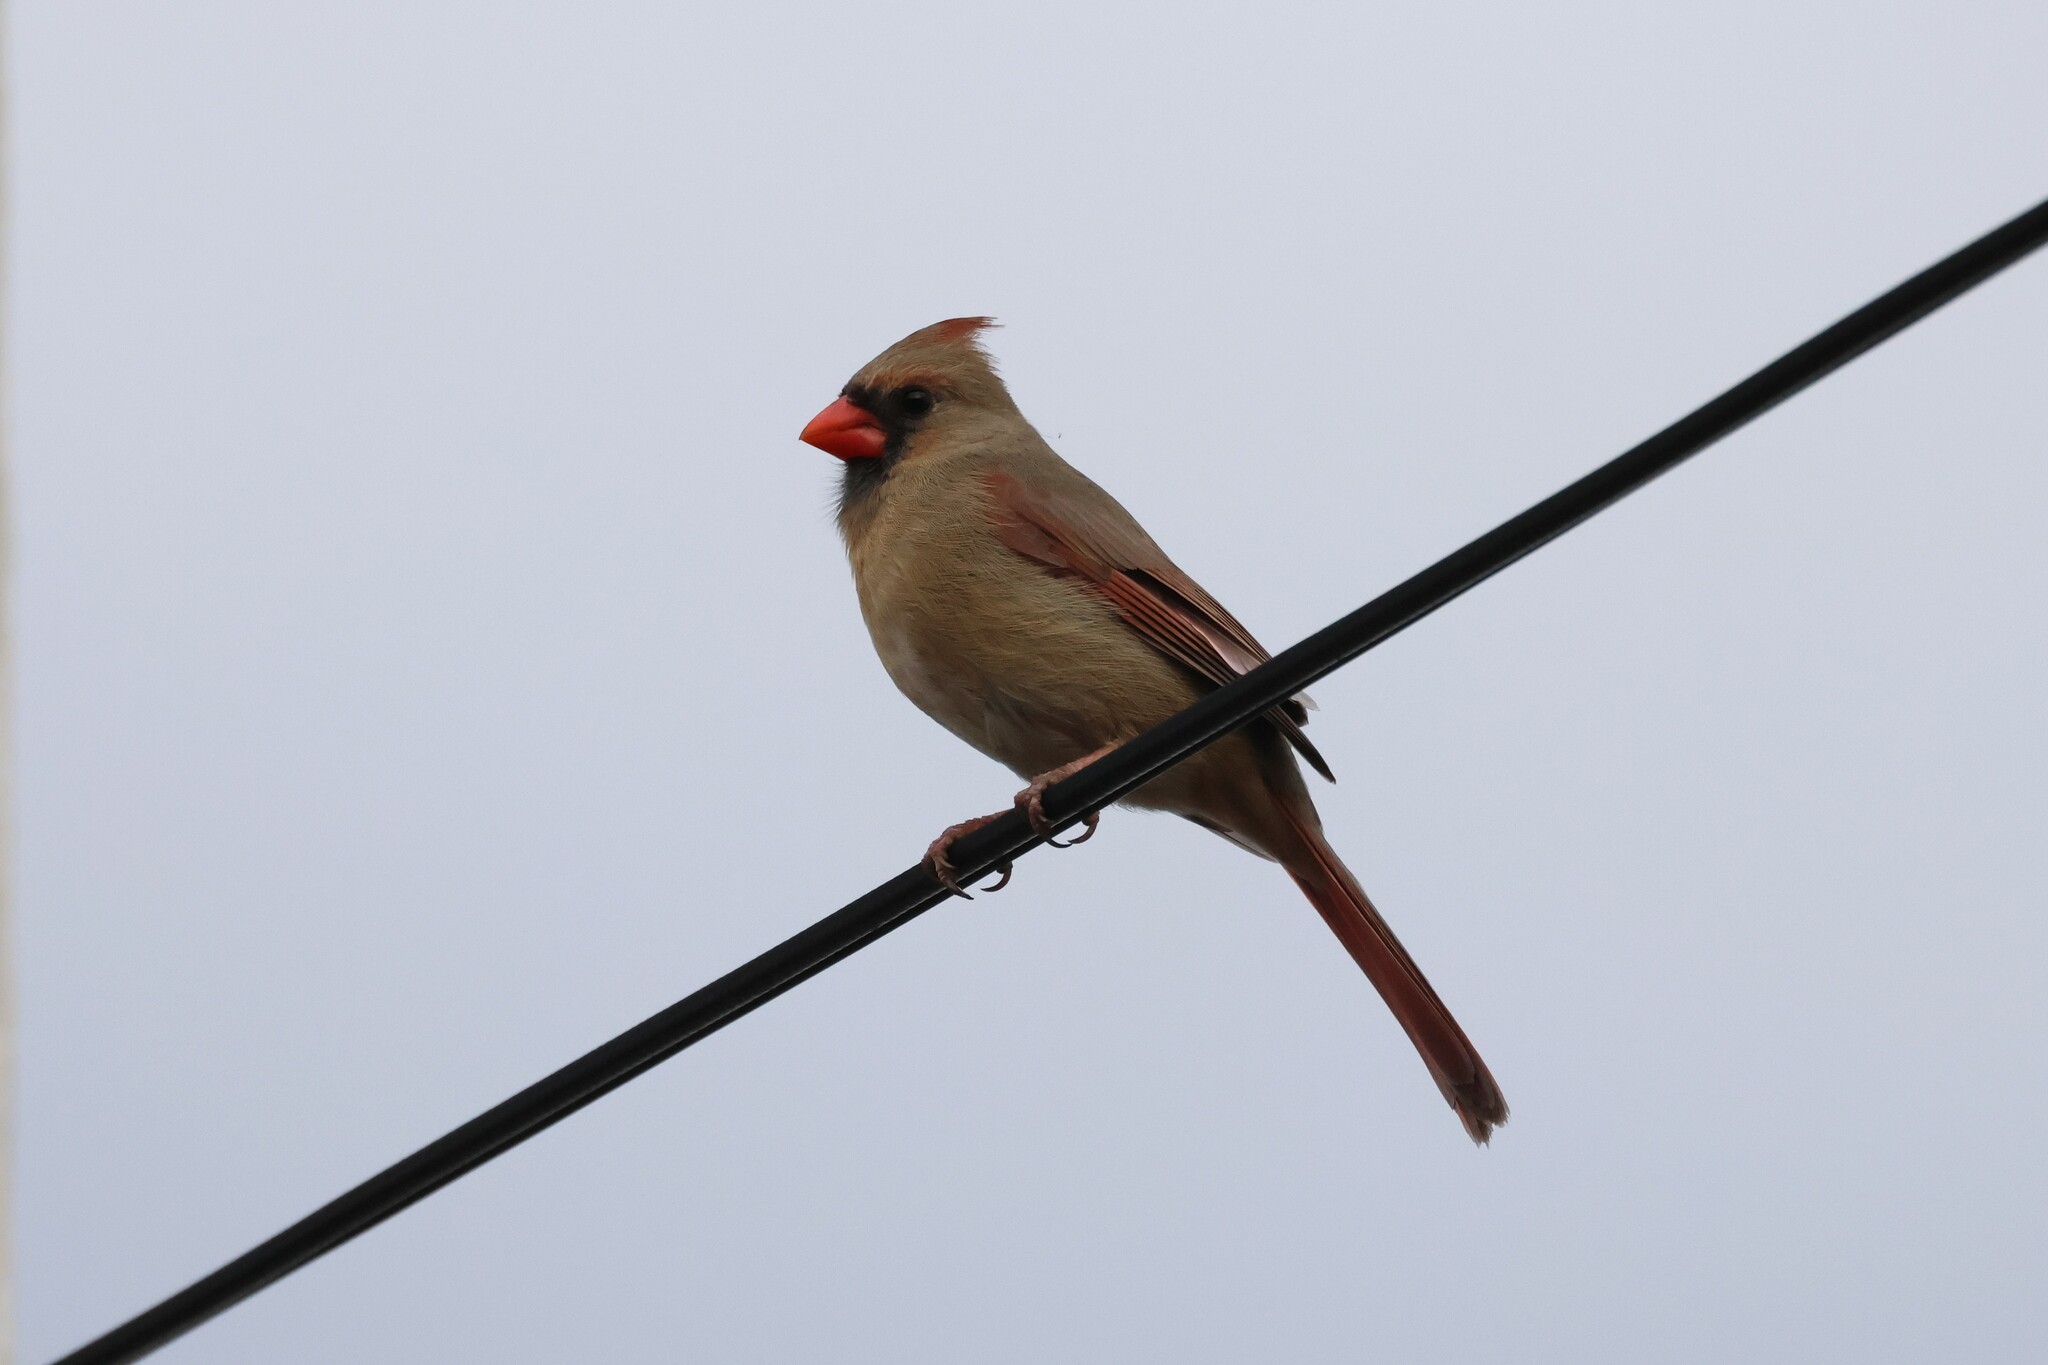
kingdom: Animalia
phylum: Chordata
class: Aves
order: Passeriformes
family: Cardinalidae
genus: Cardinalis
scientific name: Cardinalis cardinalis
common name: Northern cardinal
